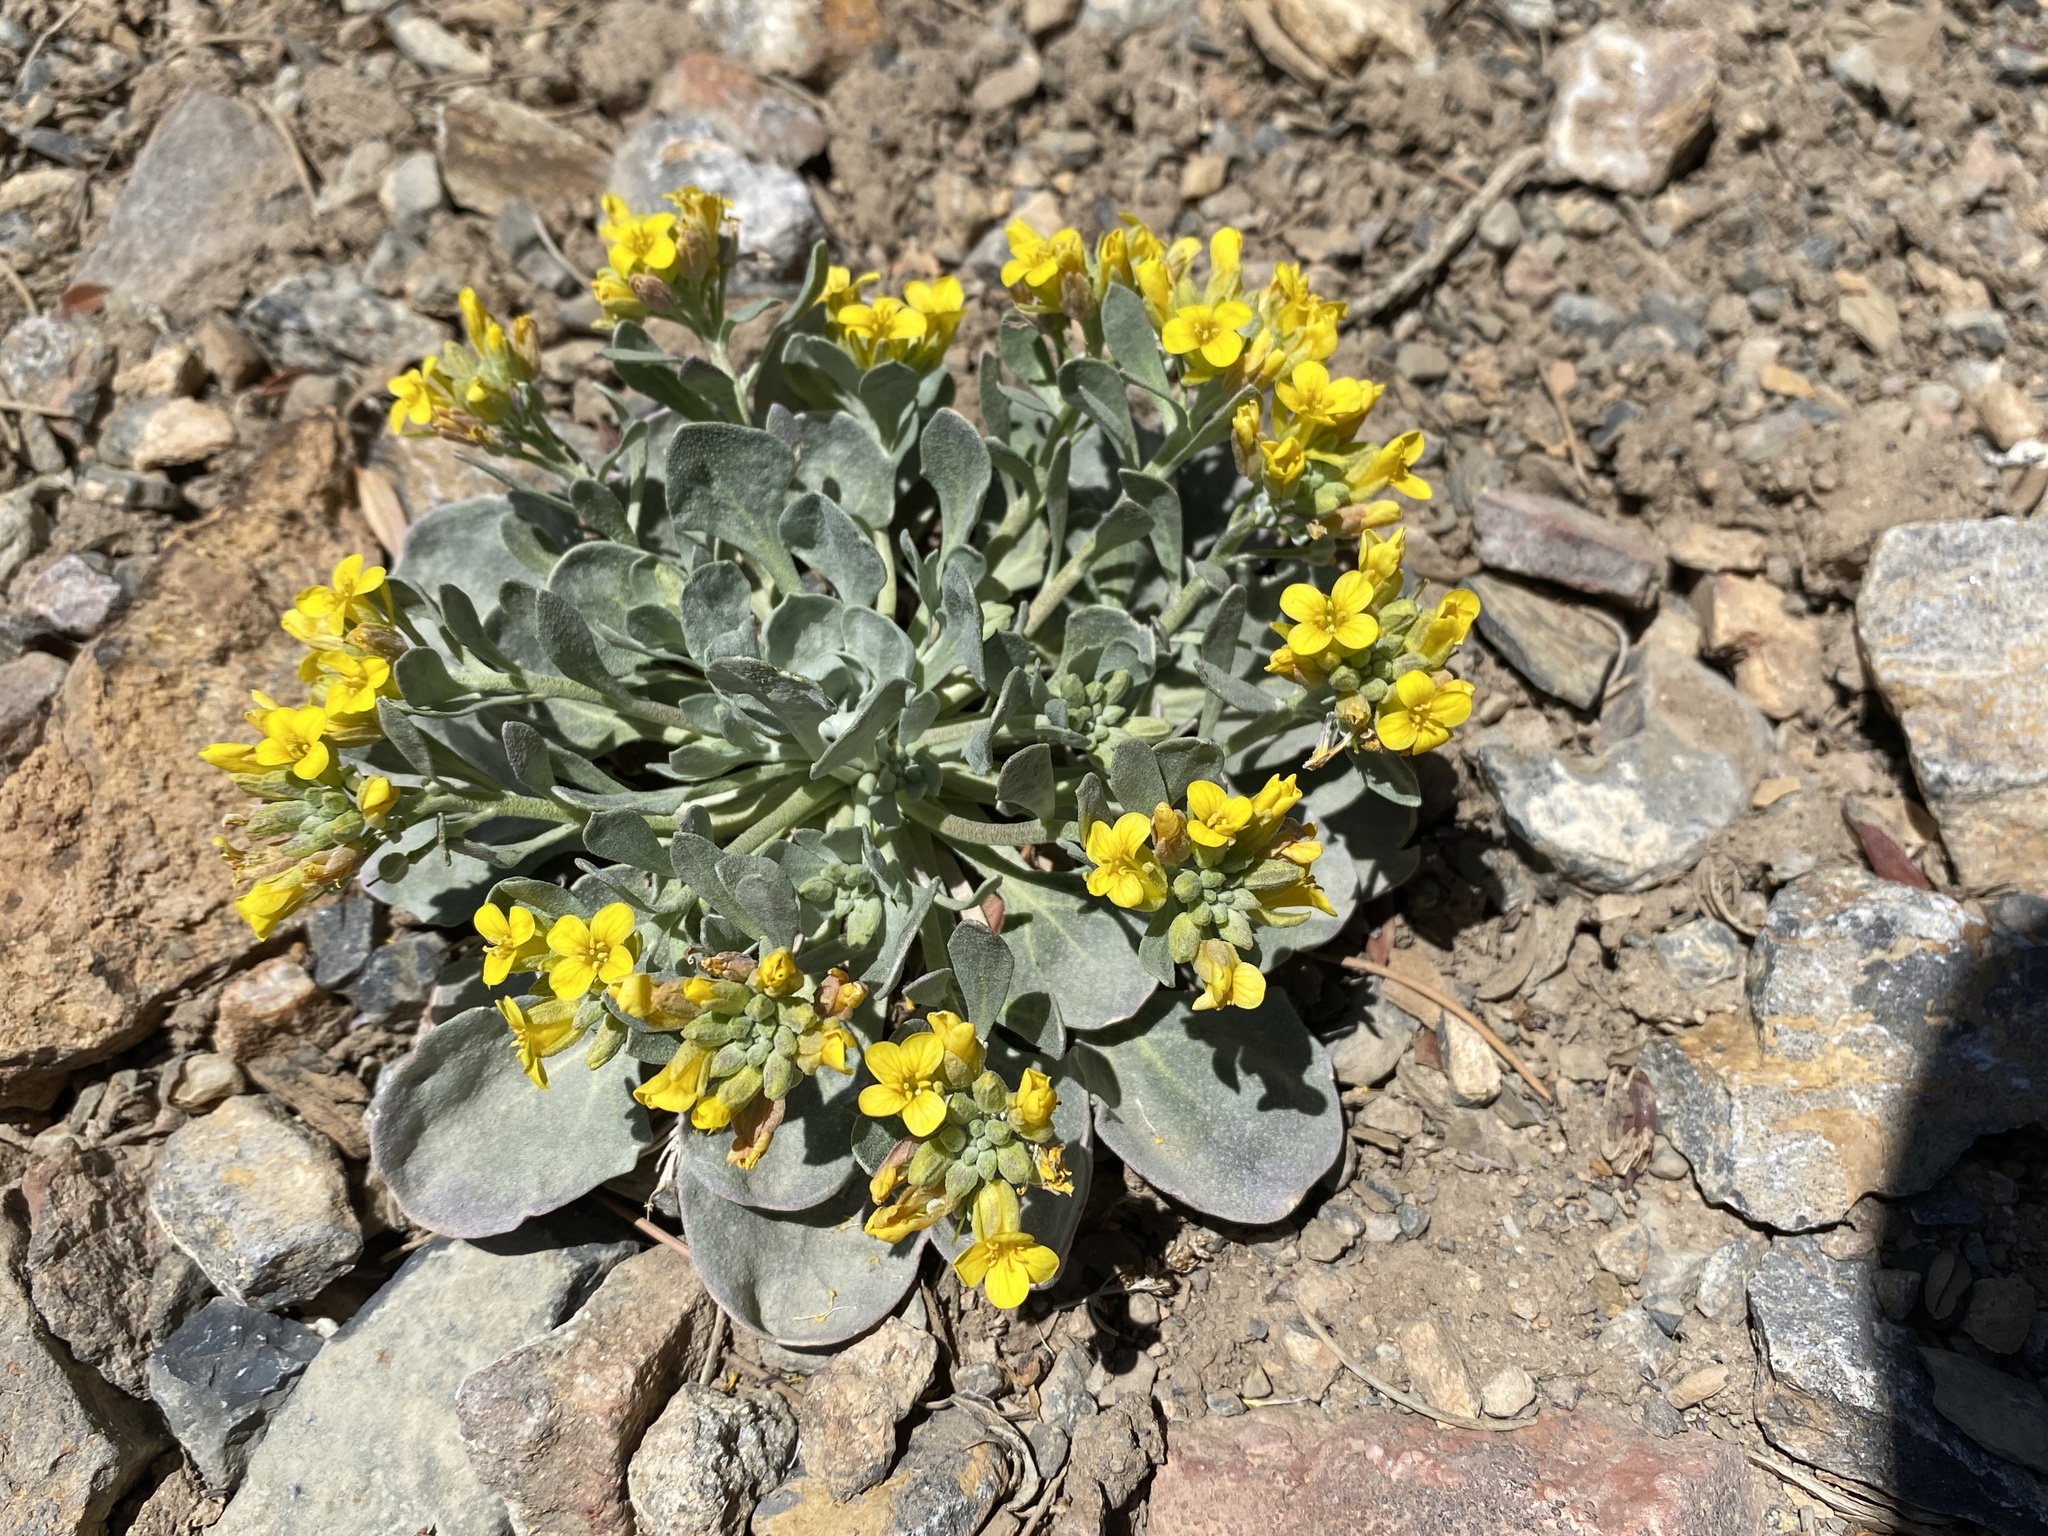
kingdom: Plantae
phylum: Tracheophyta
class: Magnoliopsida
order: Brassicales
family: Brassicaceae
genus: Physaria
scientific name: Physaria chambersii
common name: Chamber's twinpod
